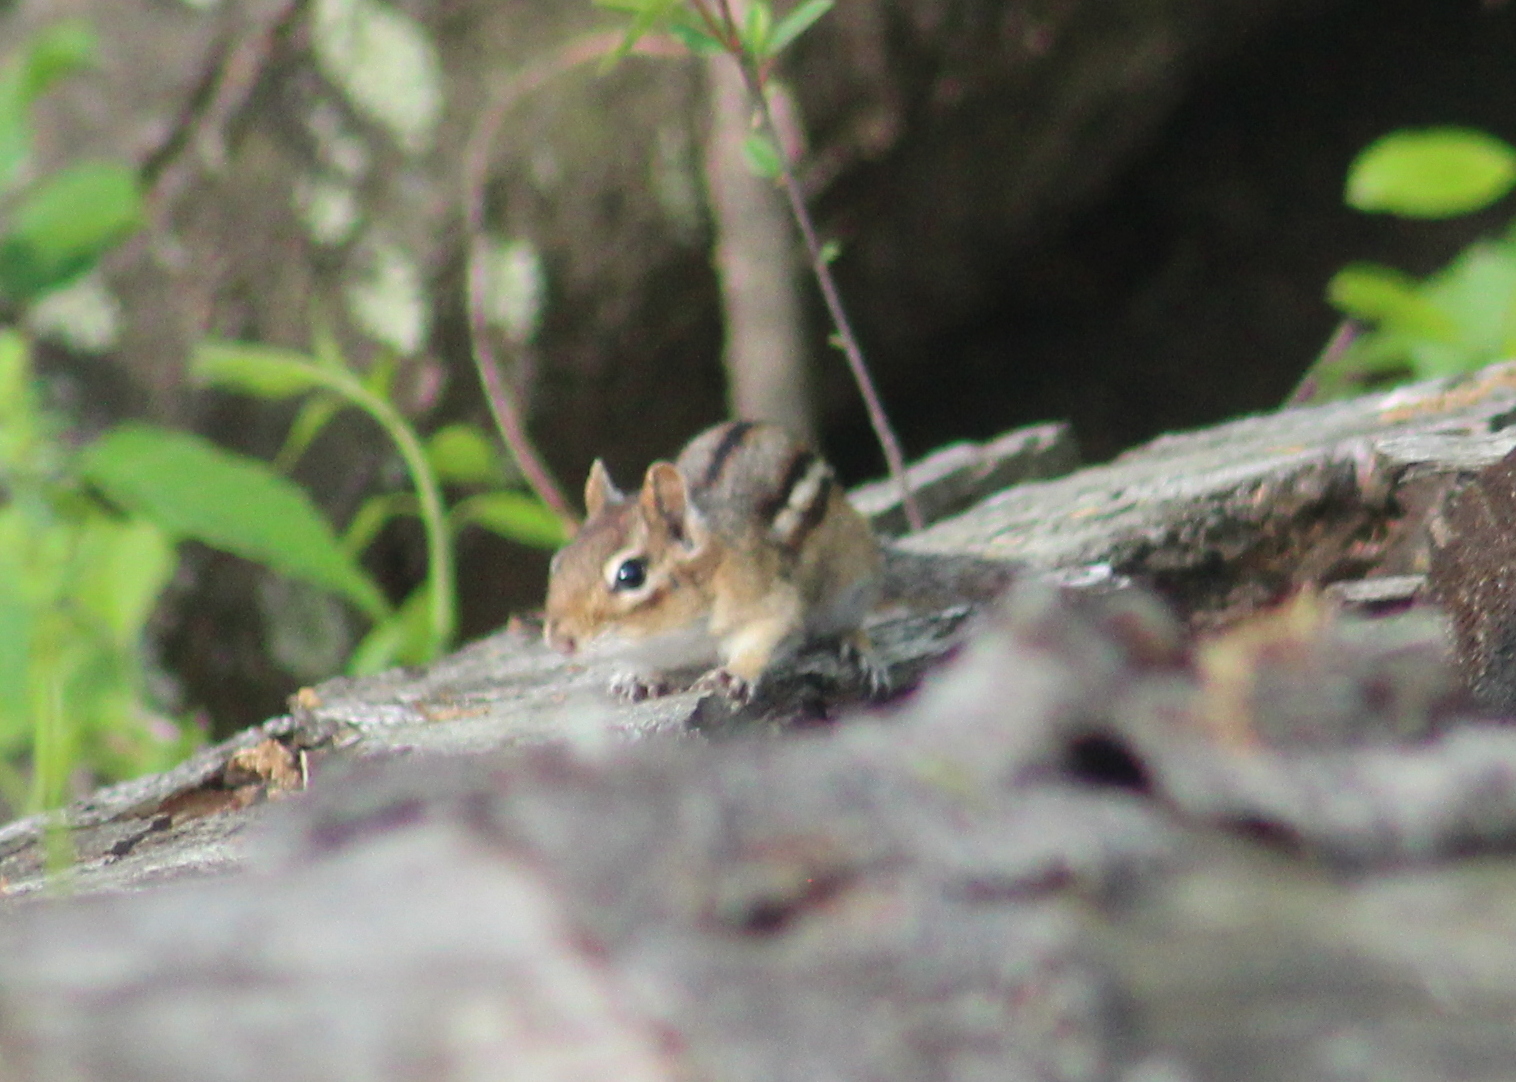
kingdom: Animalia
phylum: Chordata
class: Mammalia
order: Rodentia
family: Sciuridae
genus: Tamias
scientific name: Tamias striatus
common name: Eastern chipmunk
